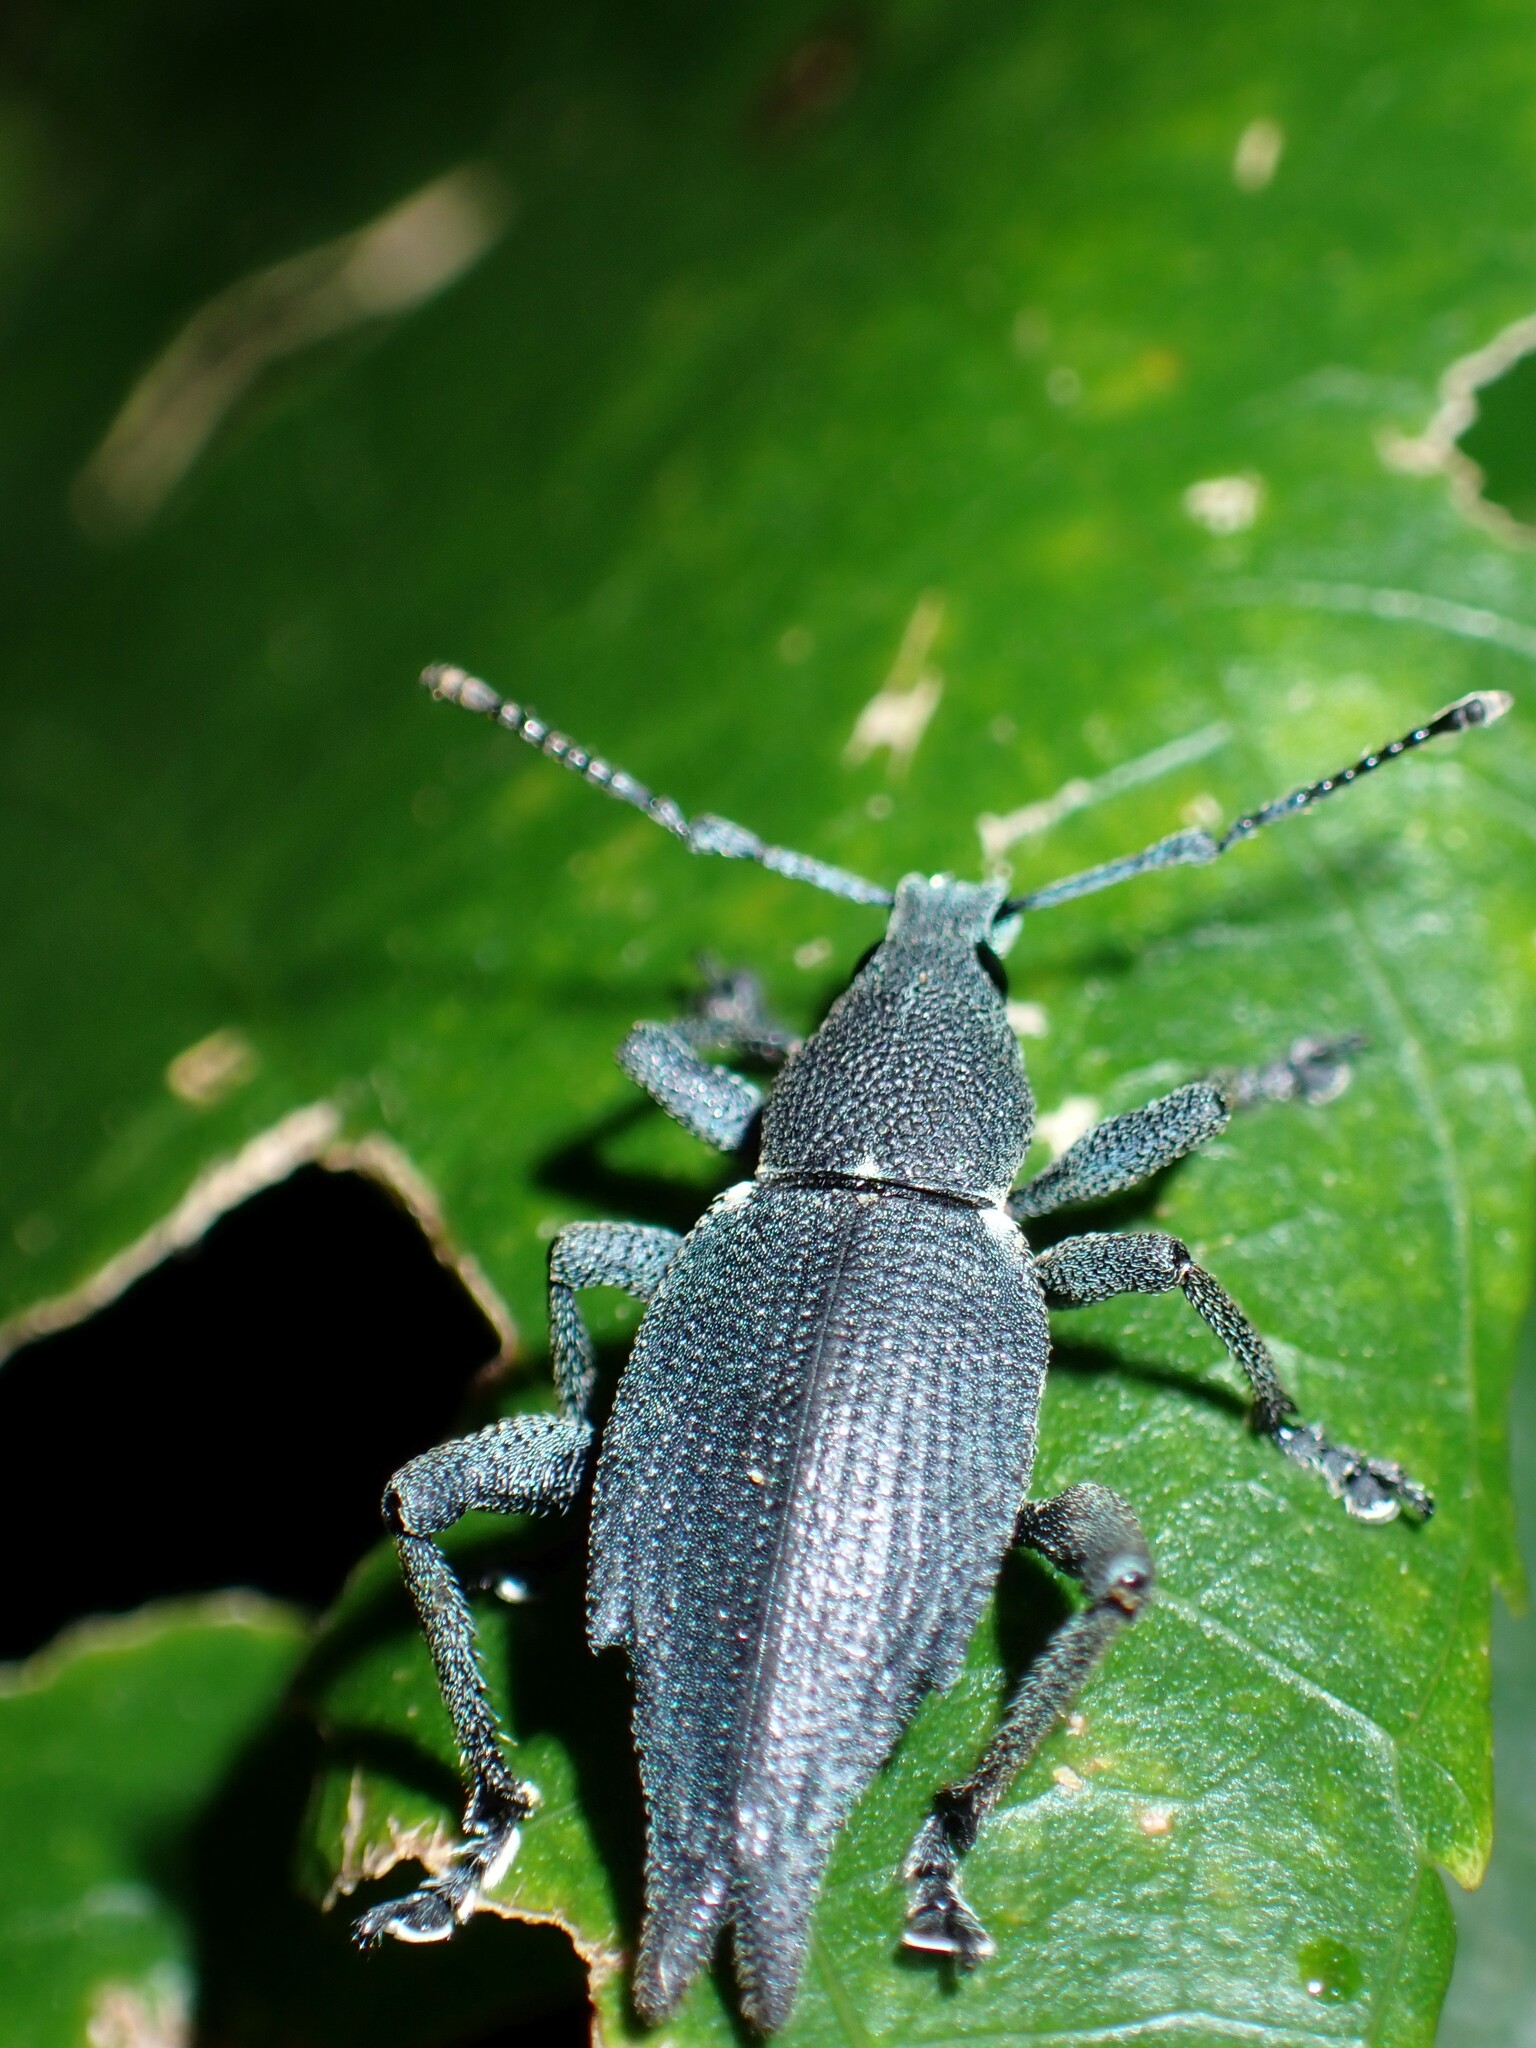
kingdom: Animalia
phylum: Arthropoda
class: Insecta
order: Coleoptera
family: Curculionidae
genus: Elytrurus
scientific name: Elytrurus caudatus
